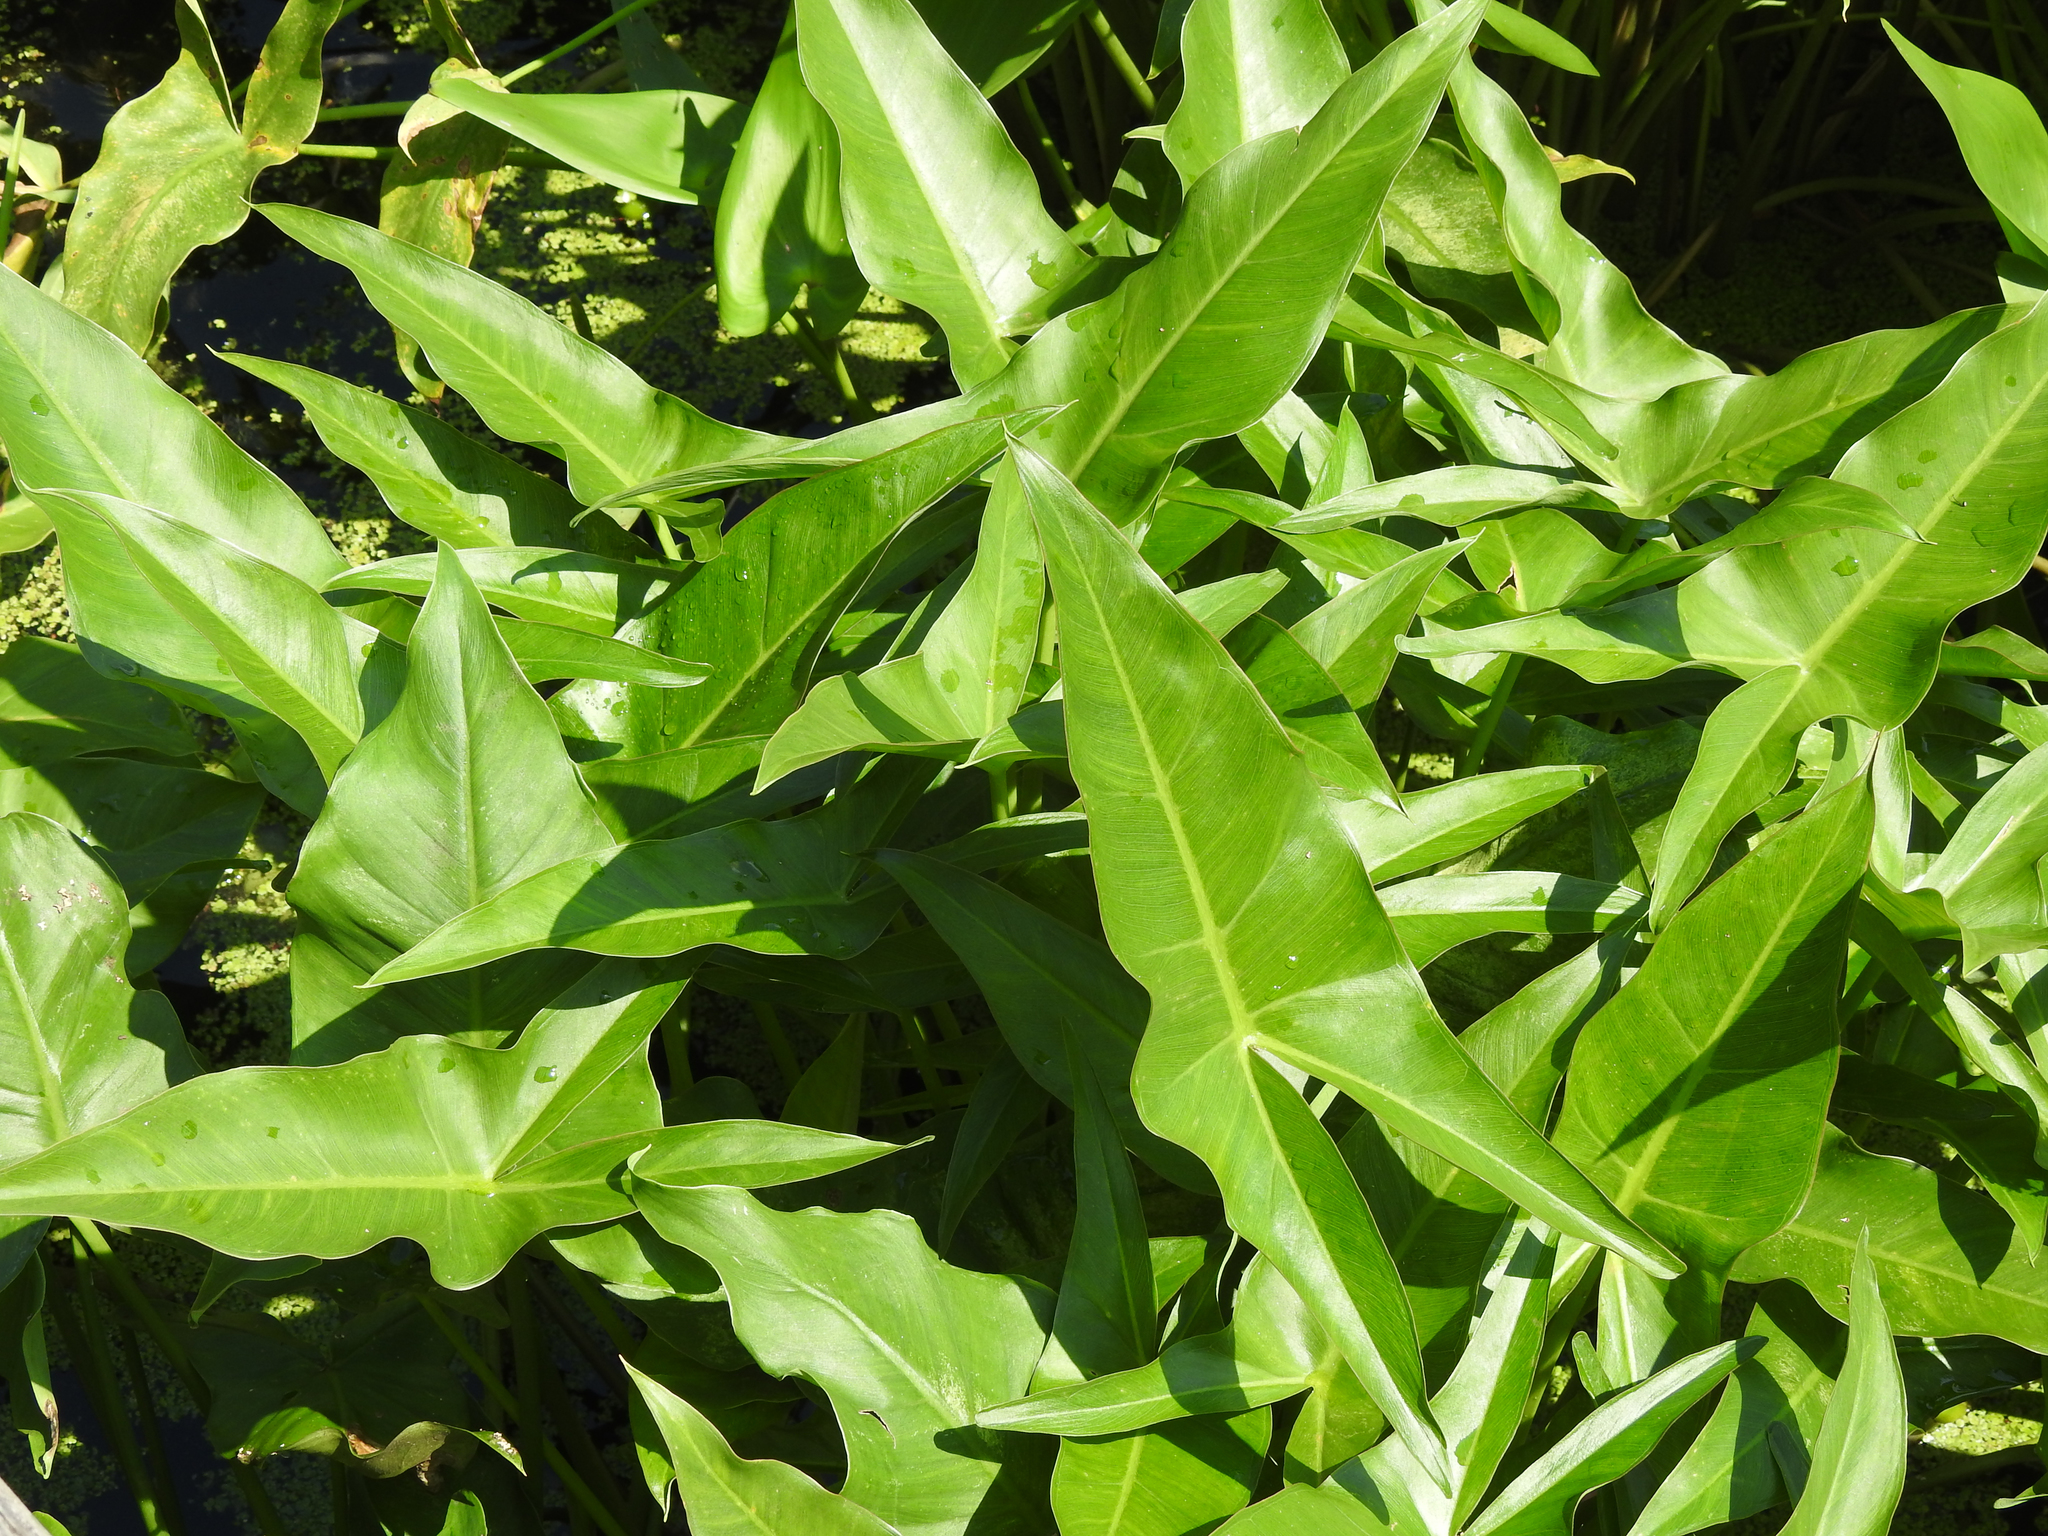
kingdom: Plantae
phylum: Tracheophyta
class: Liliopsida
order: Alismatales
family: Araceae
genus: Peltandra
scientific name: Peltandra virginica
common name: Arrow arum
